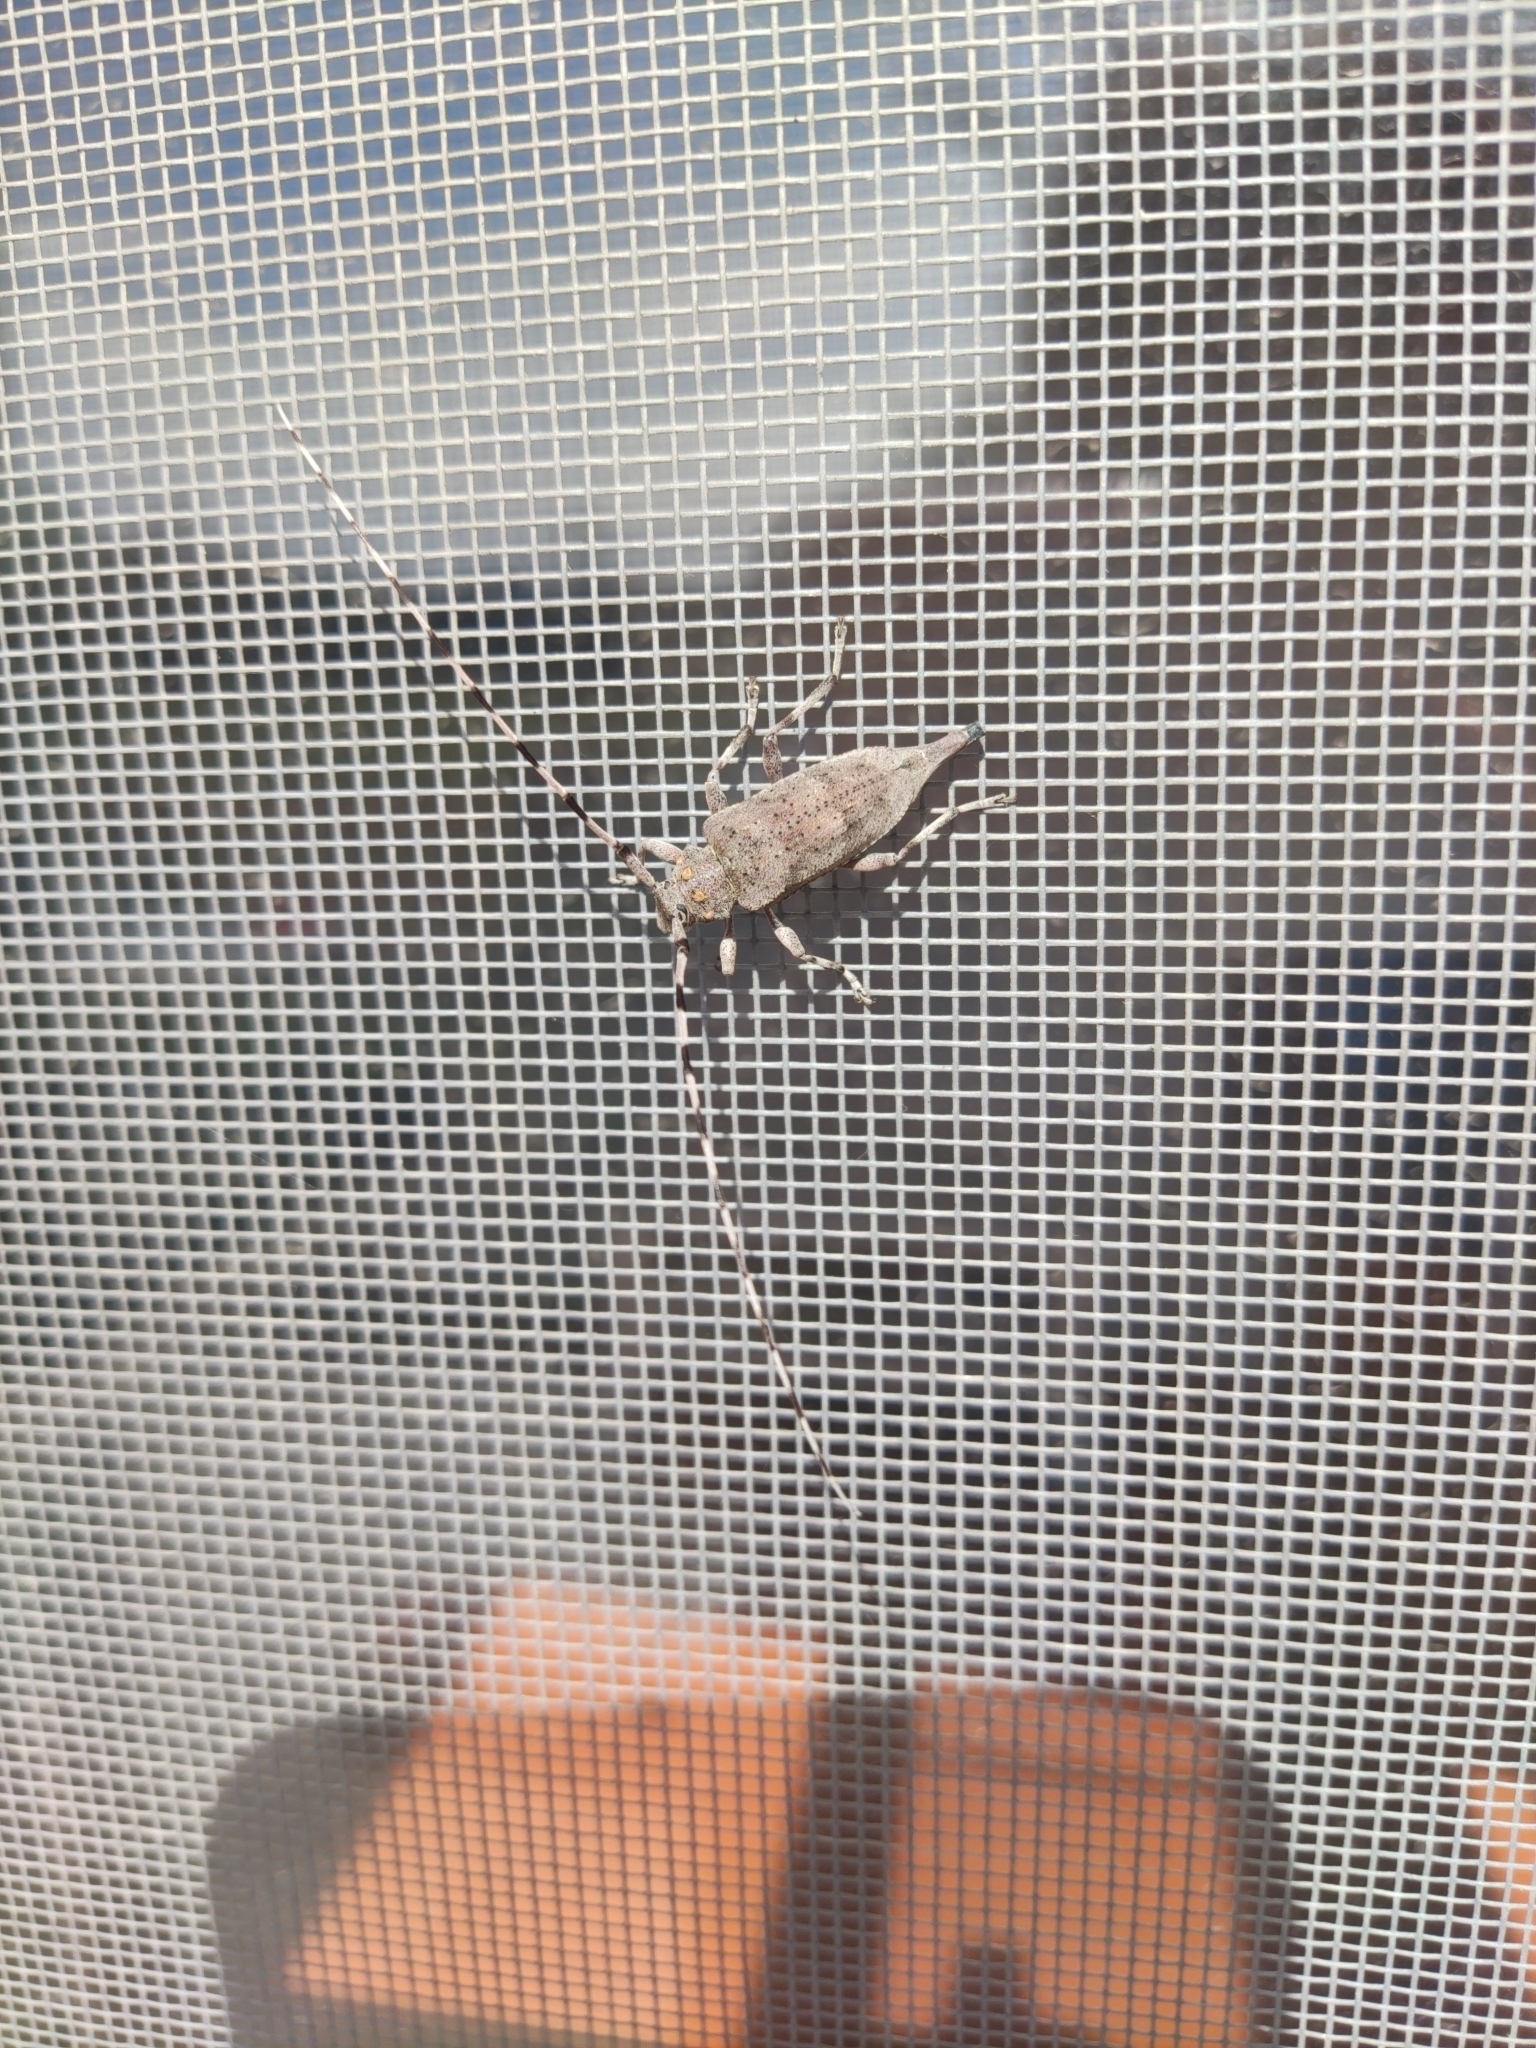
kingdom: Animalia
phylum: Arthropoda
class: Insecta
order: Coleoptera
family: Cerambycidae
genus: Acanthocinus
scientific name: Acanthocinus aedilis
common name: Timberman beetle
